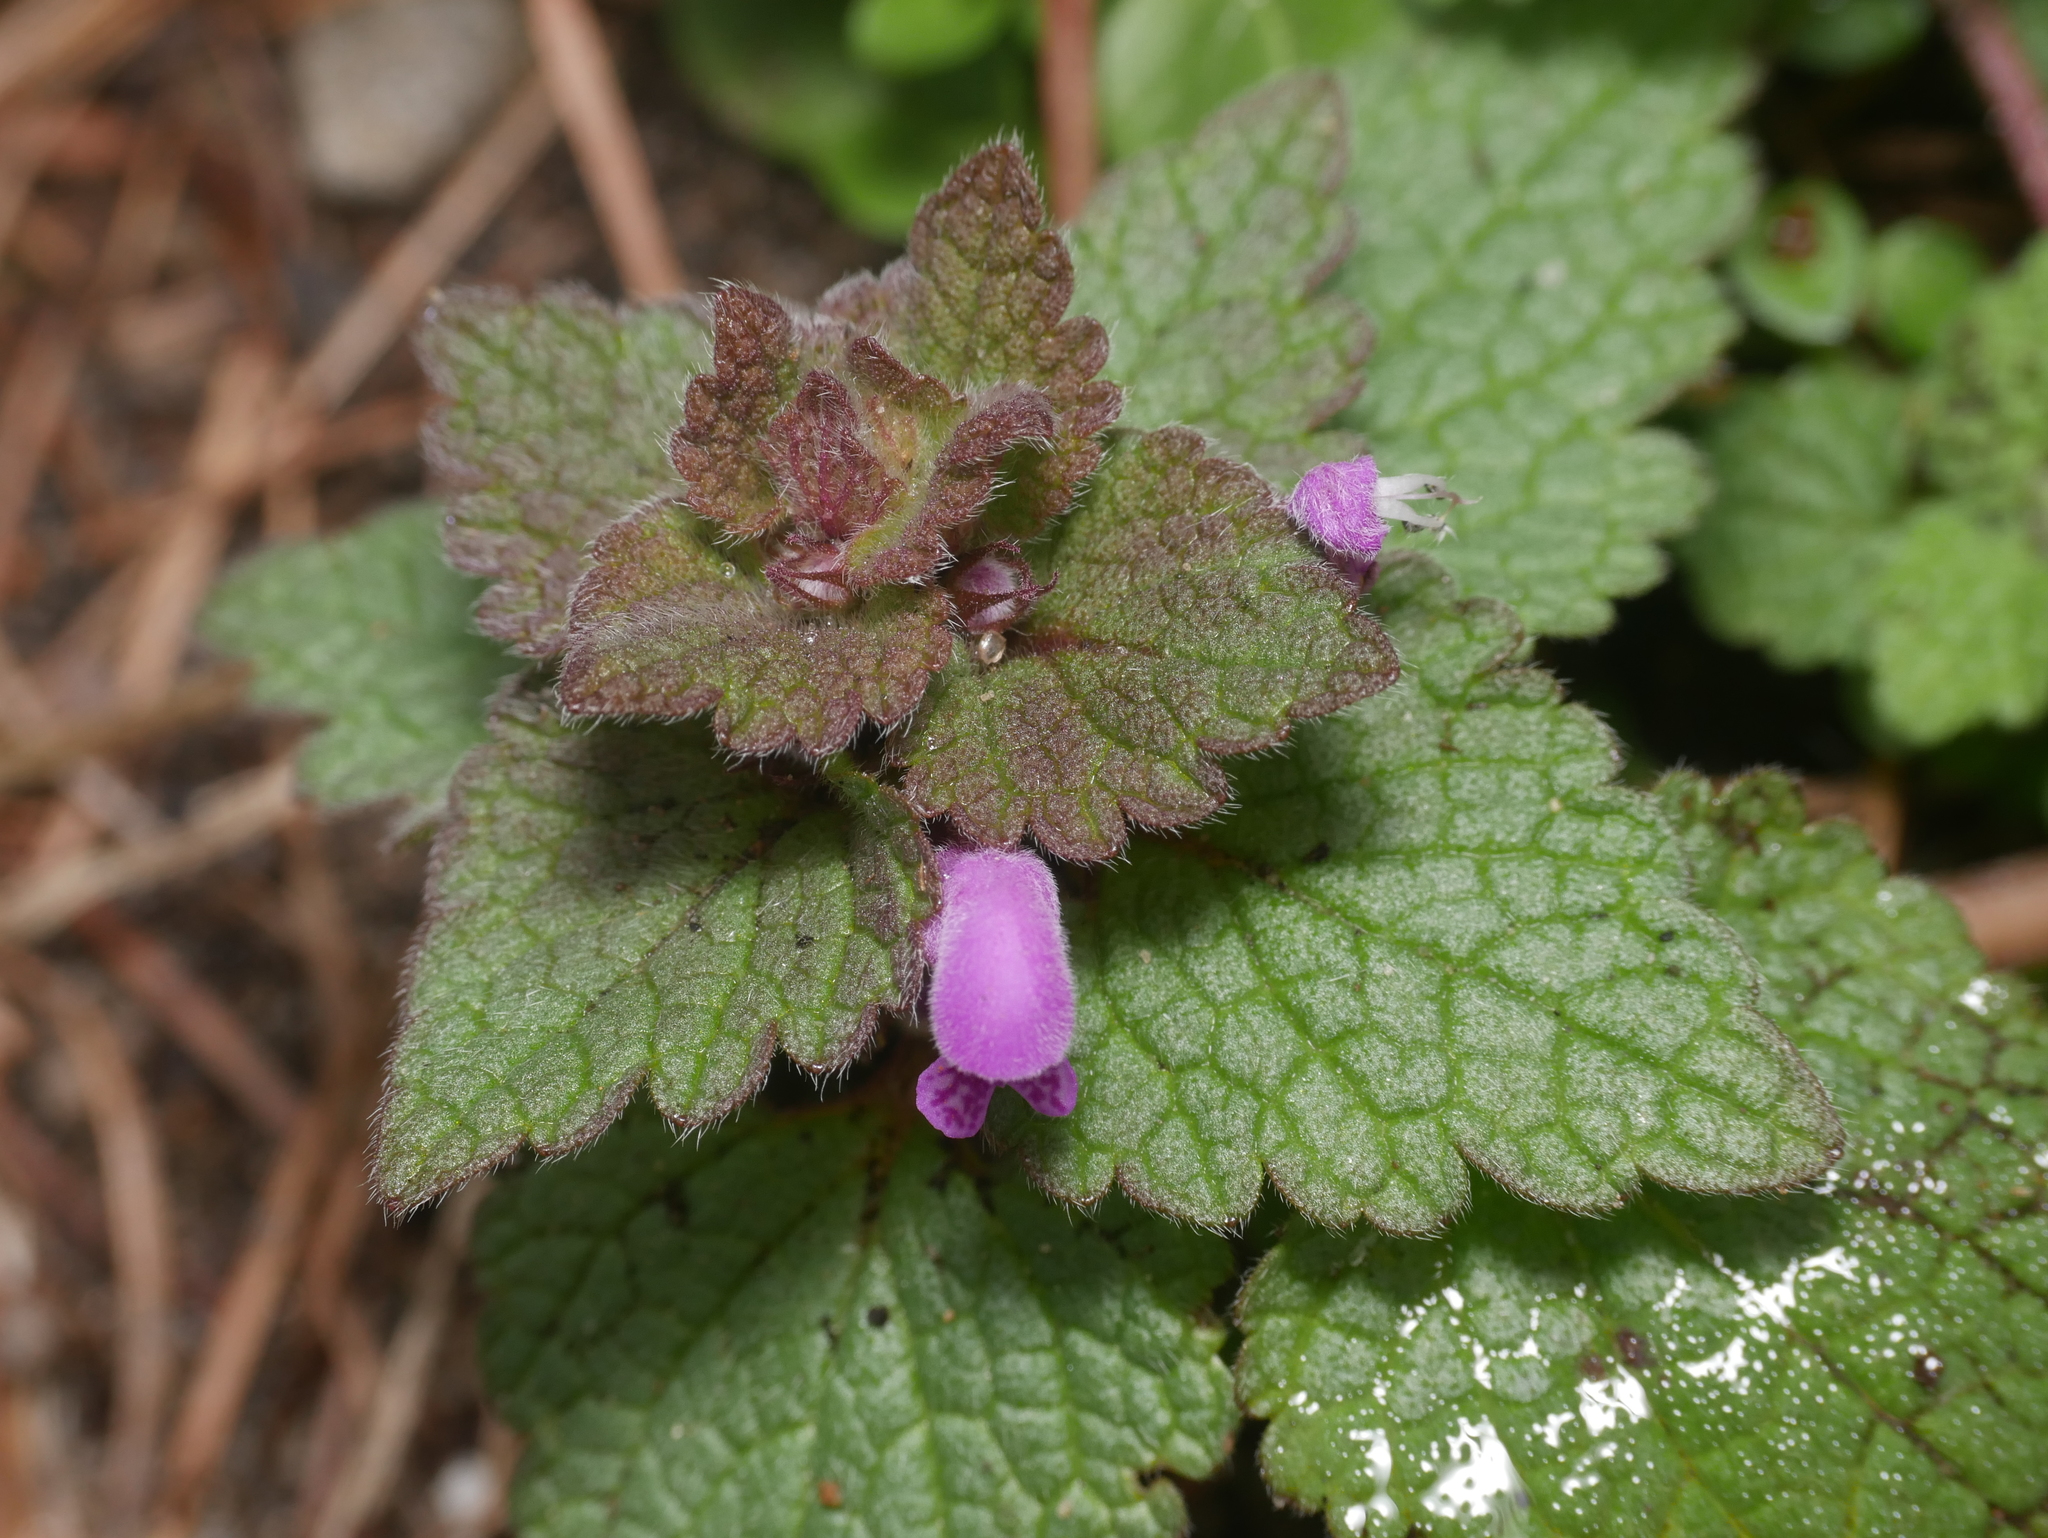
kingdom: Plantae
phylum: Tracheophyta
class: Magnoliopsida
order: Lamiales
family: Lamiaceae
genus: Lamium
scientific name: Lamium purpureum
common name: Red dead-nettle
